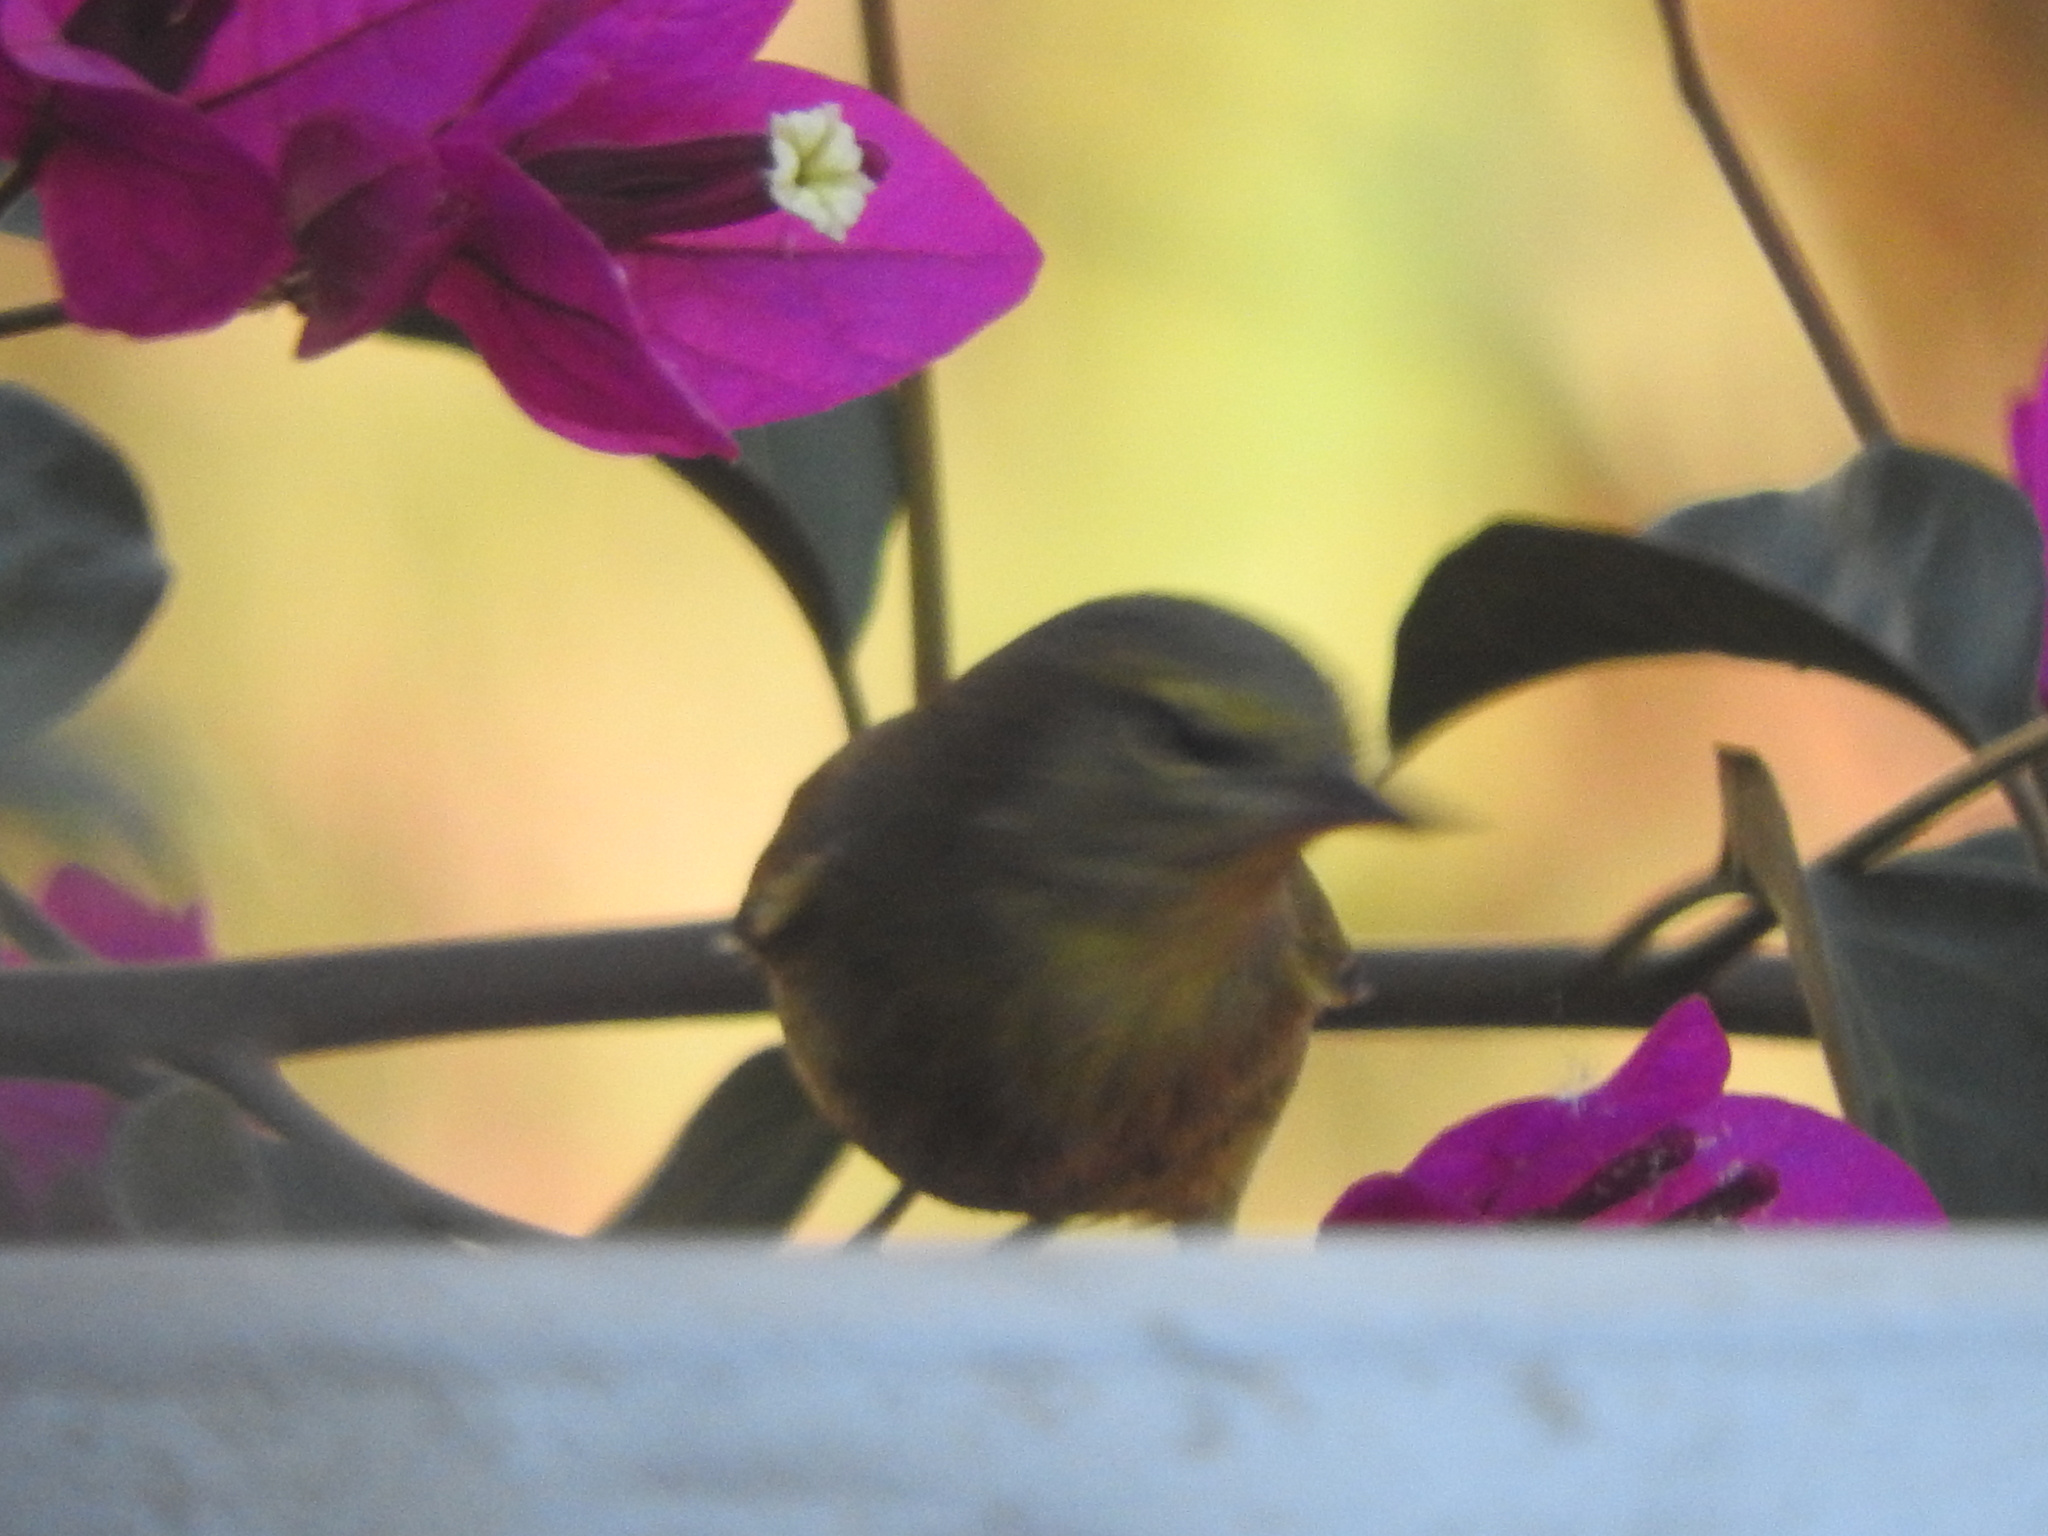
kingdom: Animalia
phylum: Chordata
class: Aves
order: Passeriformes
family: Parulidae
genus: Leiothlypis
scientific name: Leiothlypis celata
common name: Orange-crowned warbler
